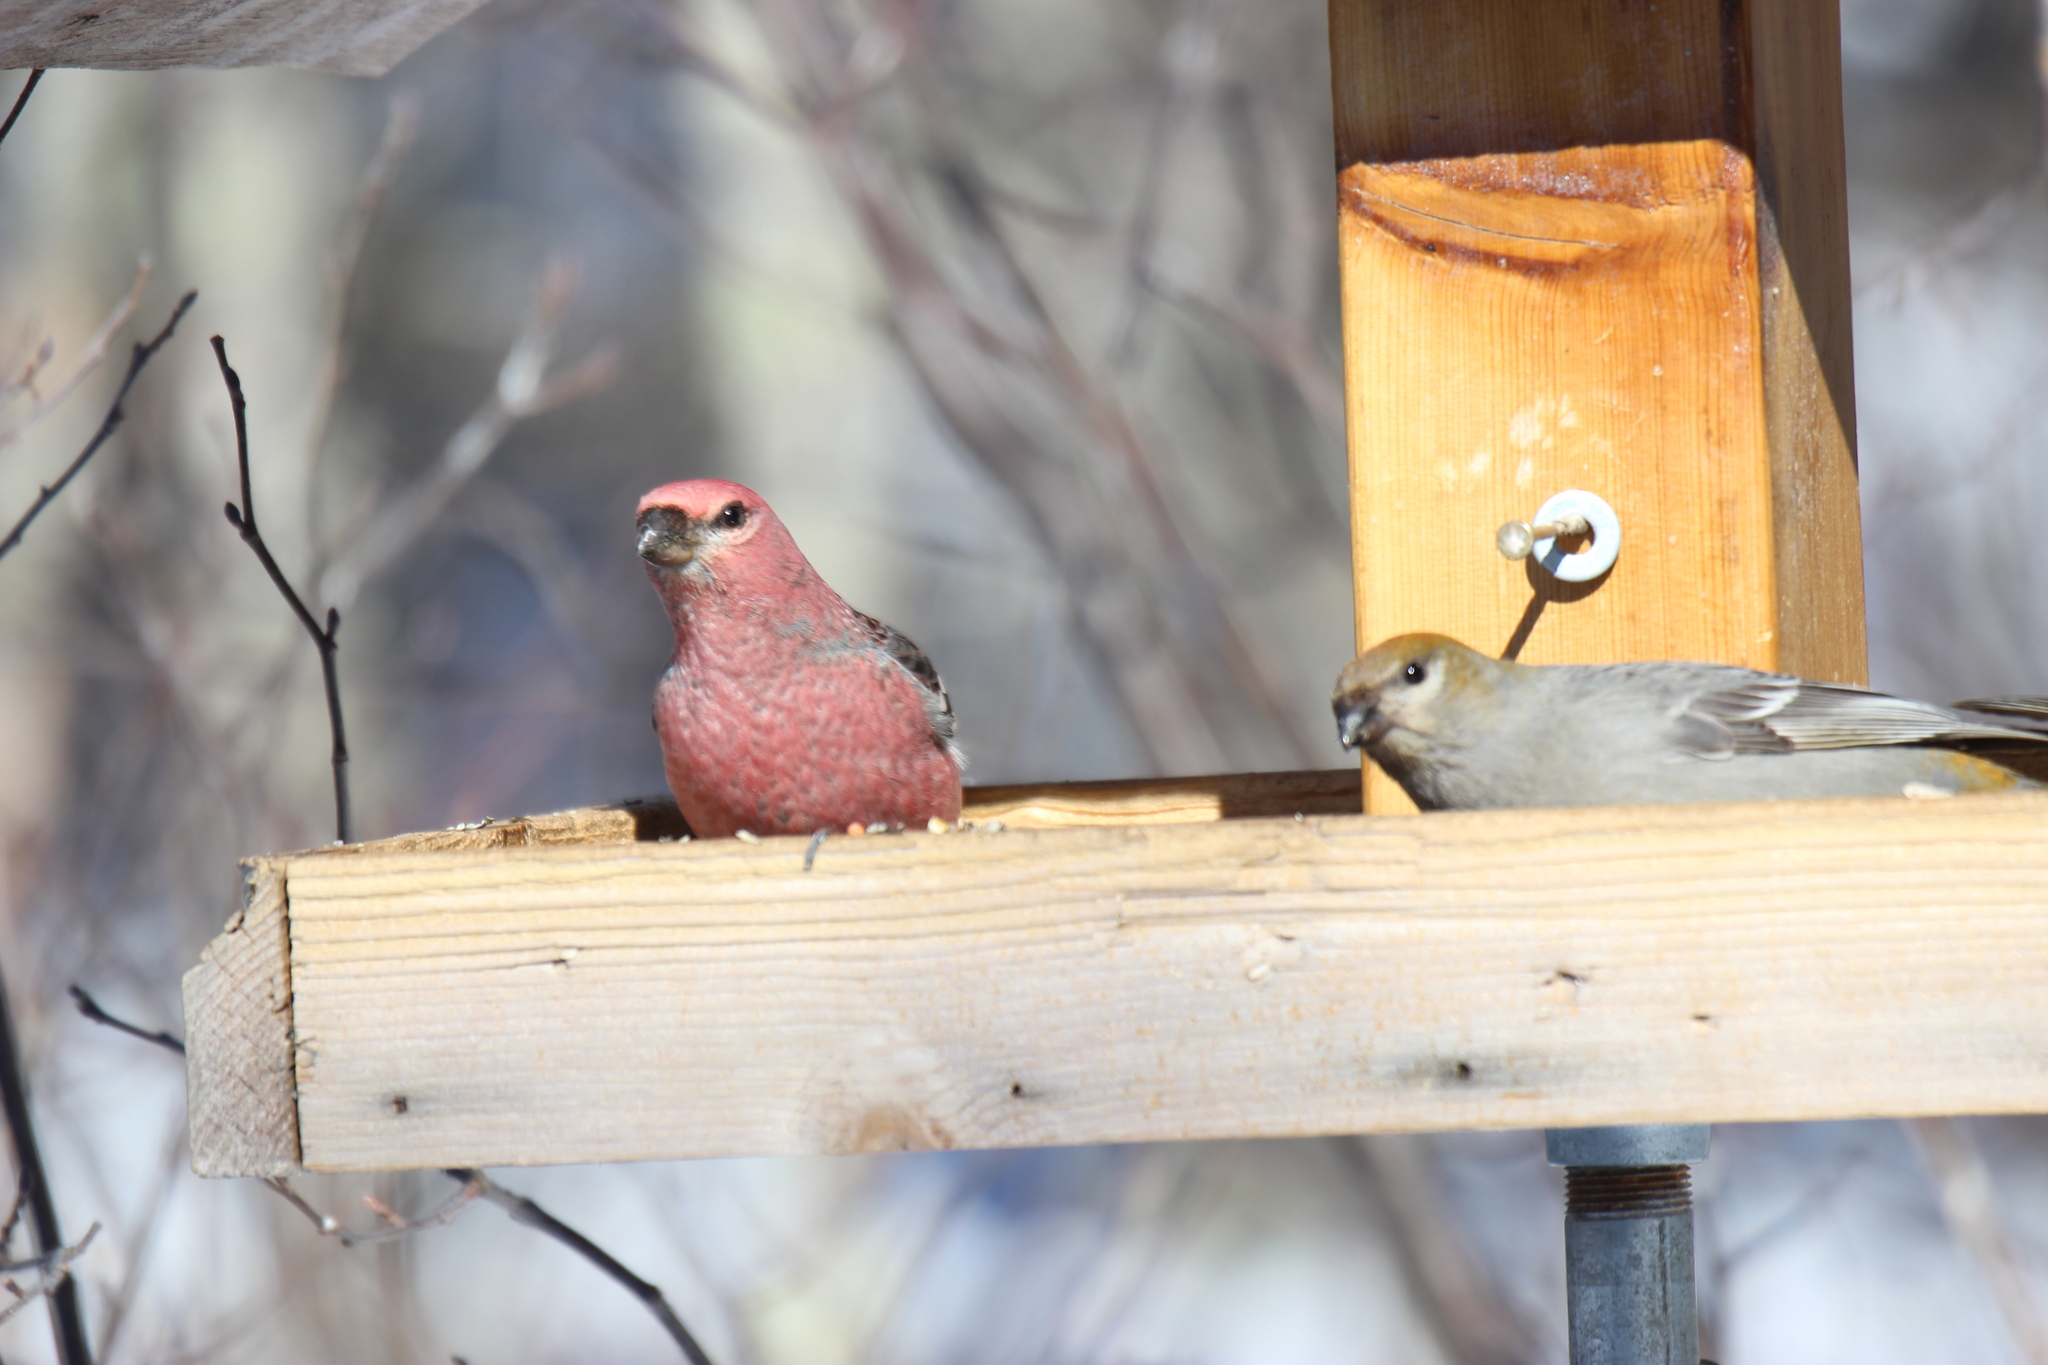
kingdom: Animalia
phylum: Chordata
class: Aves
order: Passeriformes
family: Fringillidae
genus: Pinicola
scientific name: Pinicola enucleator
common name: Pine grosbeak
